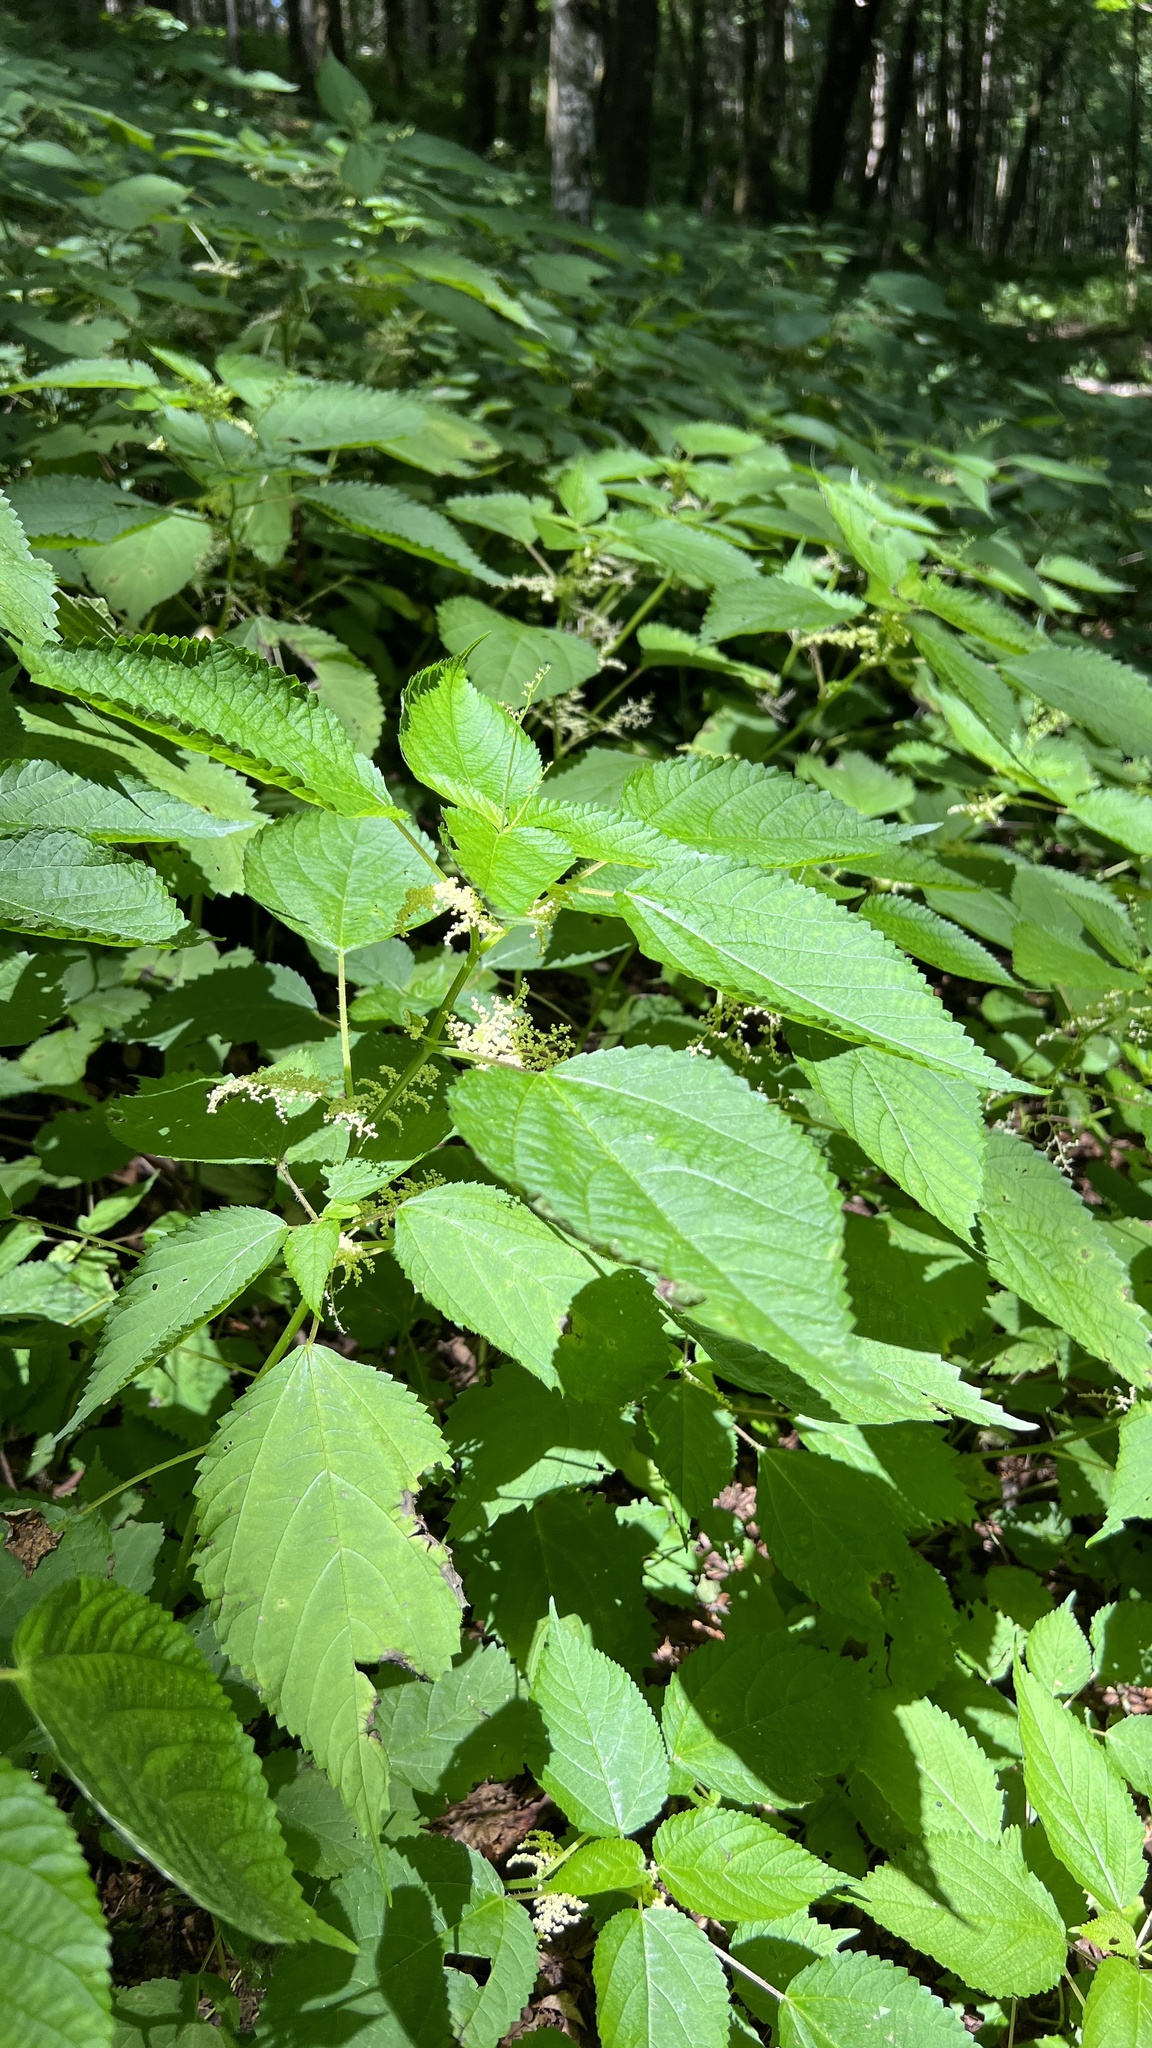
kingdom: Plantae
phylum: Tracheophyta
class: Magnoliopsida
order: Rosales
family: Urticaceae
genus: Laportea
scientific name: Laportea canadensis
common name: Canada nettle
